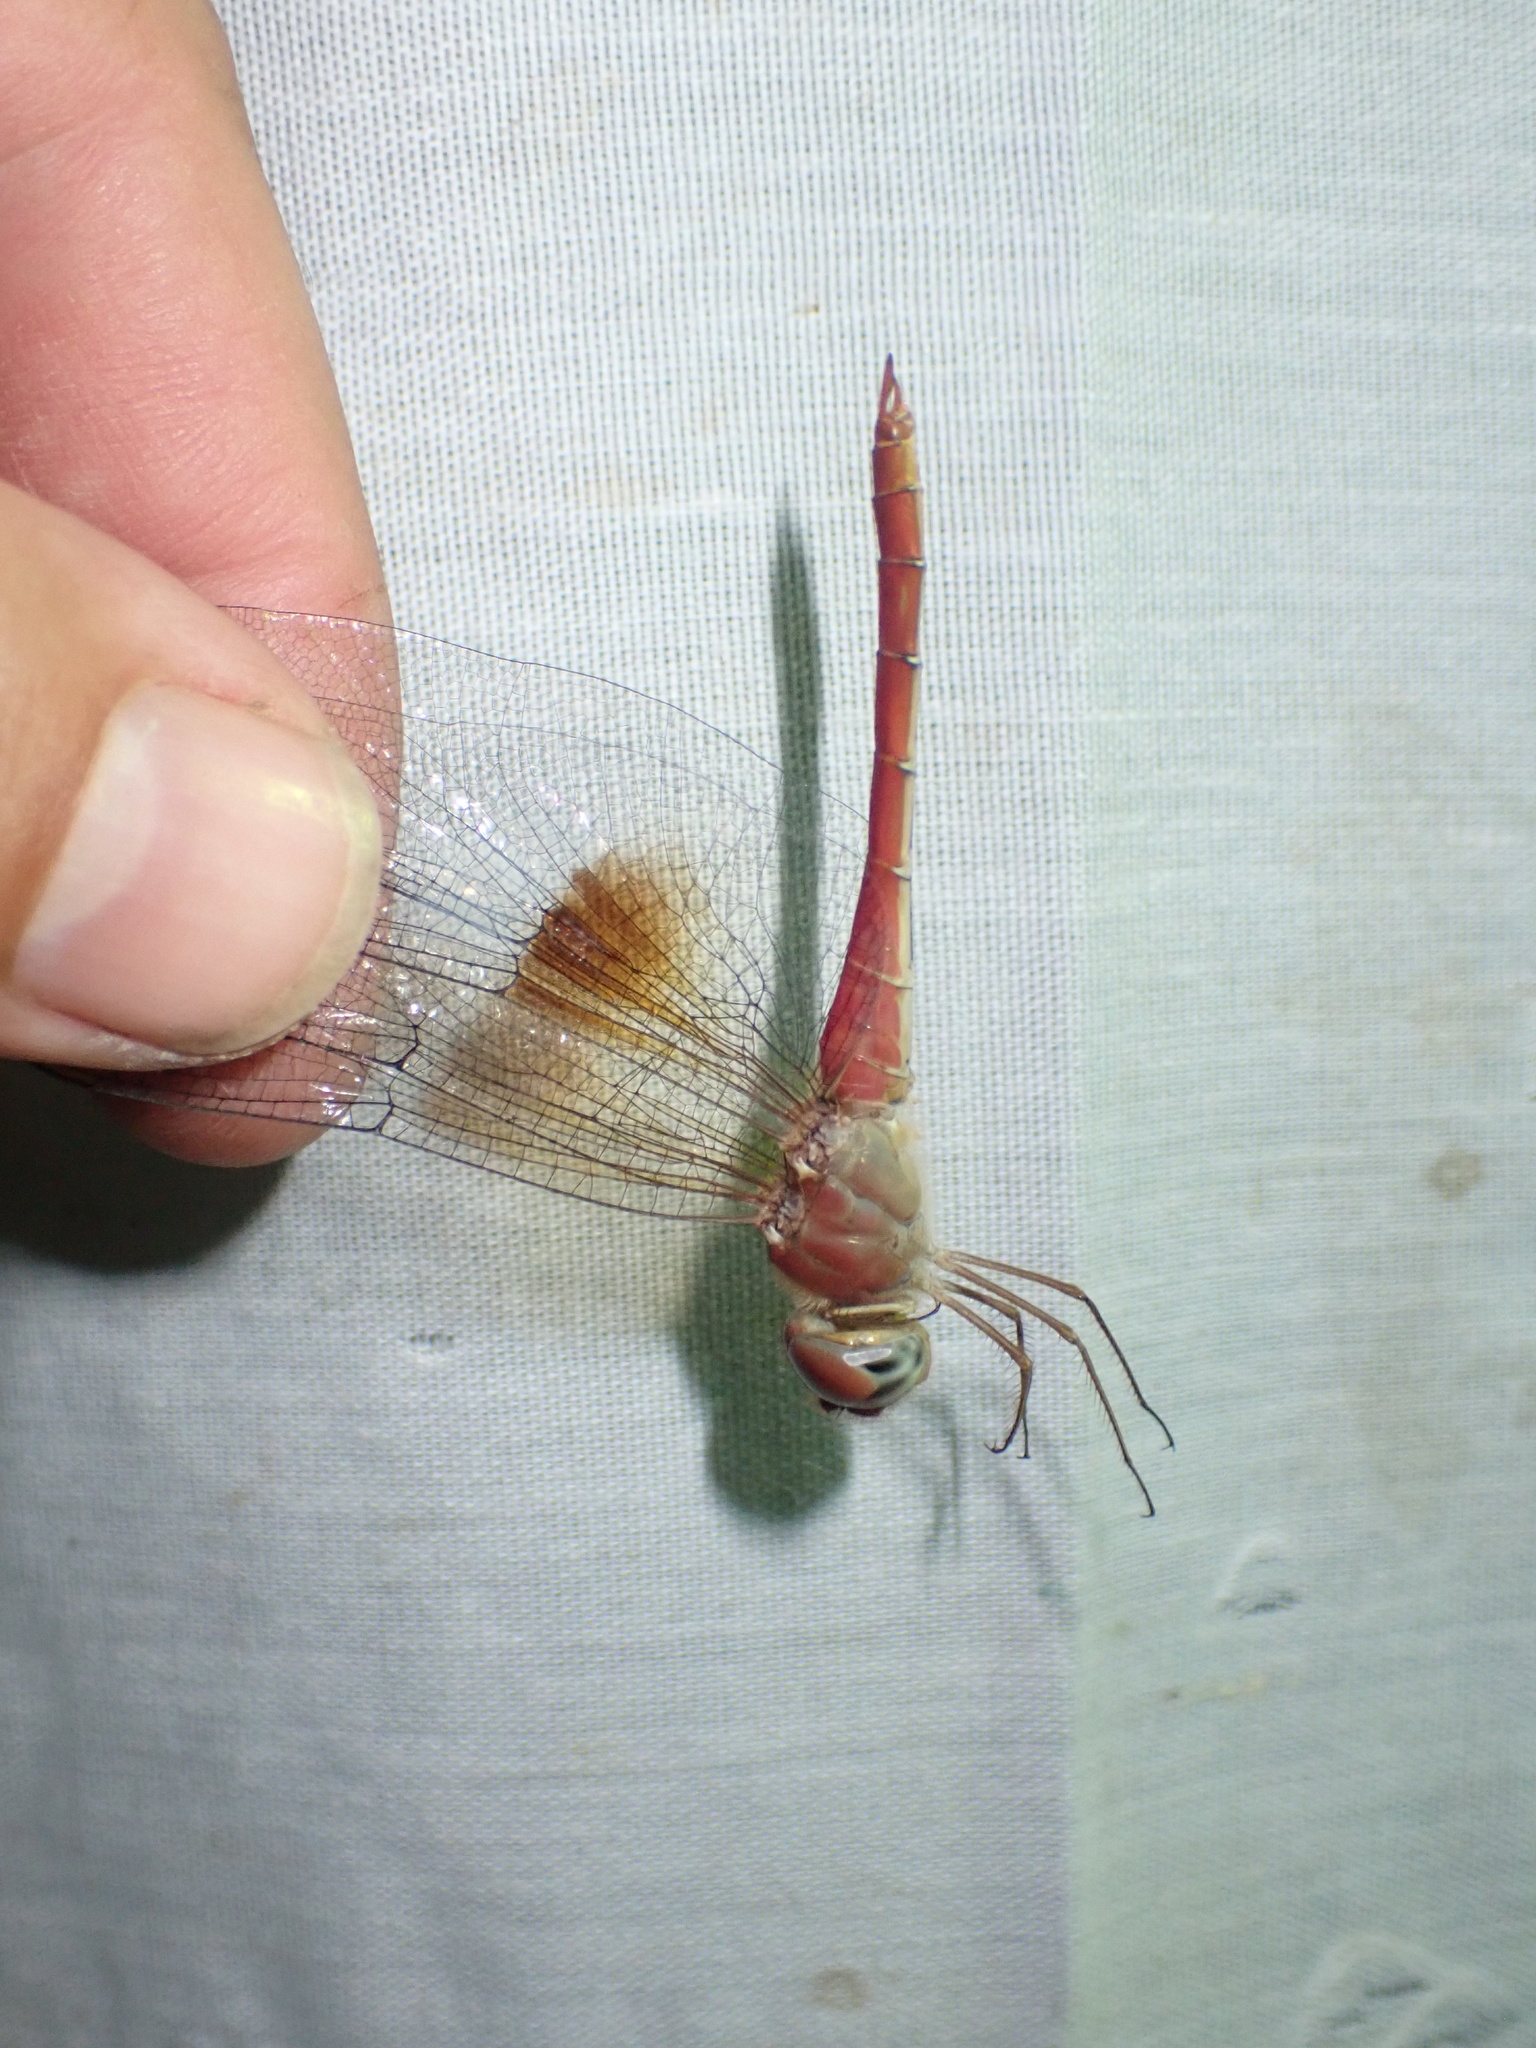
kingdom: Animalia
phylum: Arthropoda
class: Insecta
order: Odonata
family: Libellulidae
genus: Tholymis
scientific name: Tholymis tillarga
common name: Coral-tailed cloud wing
